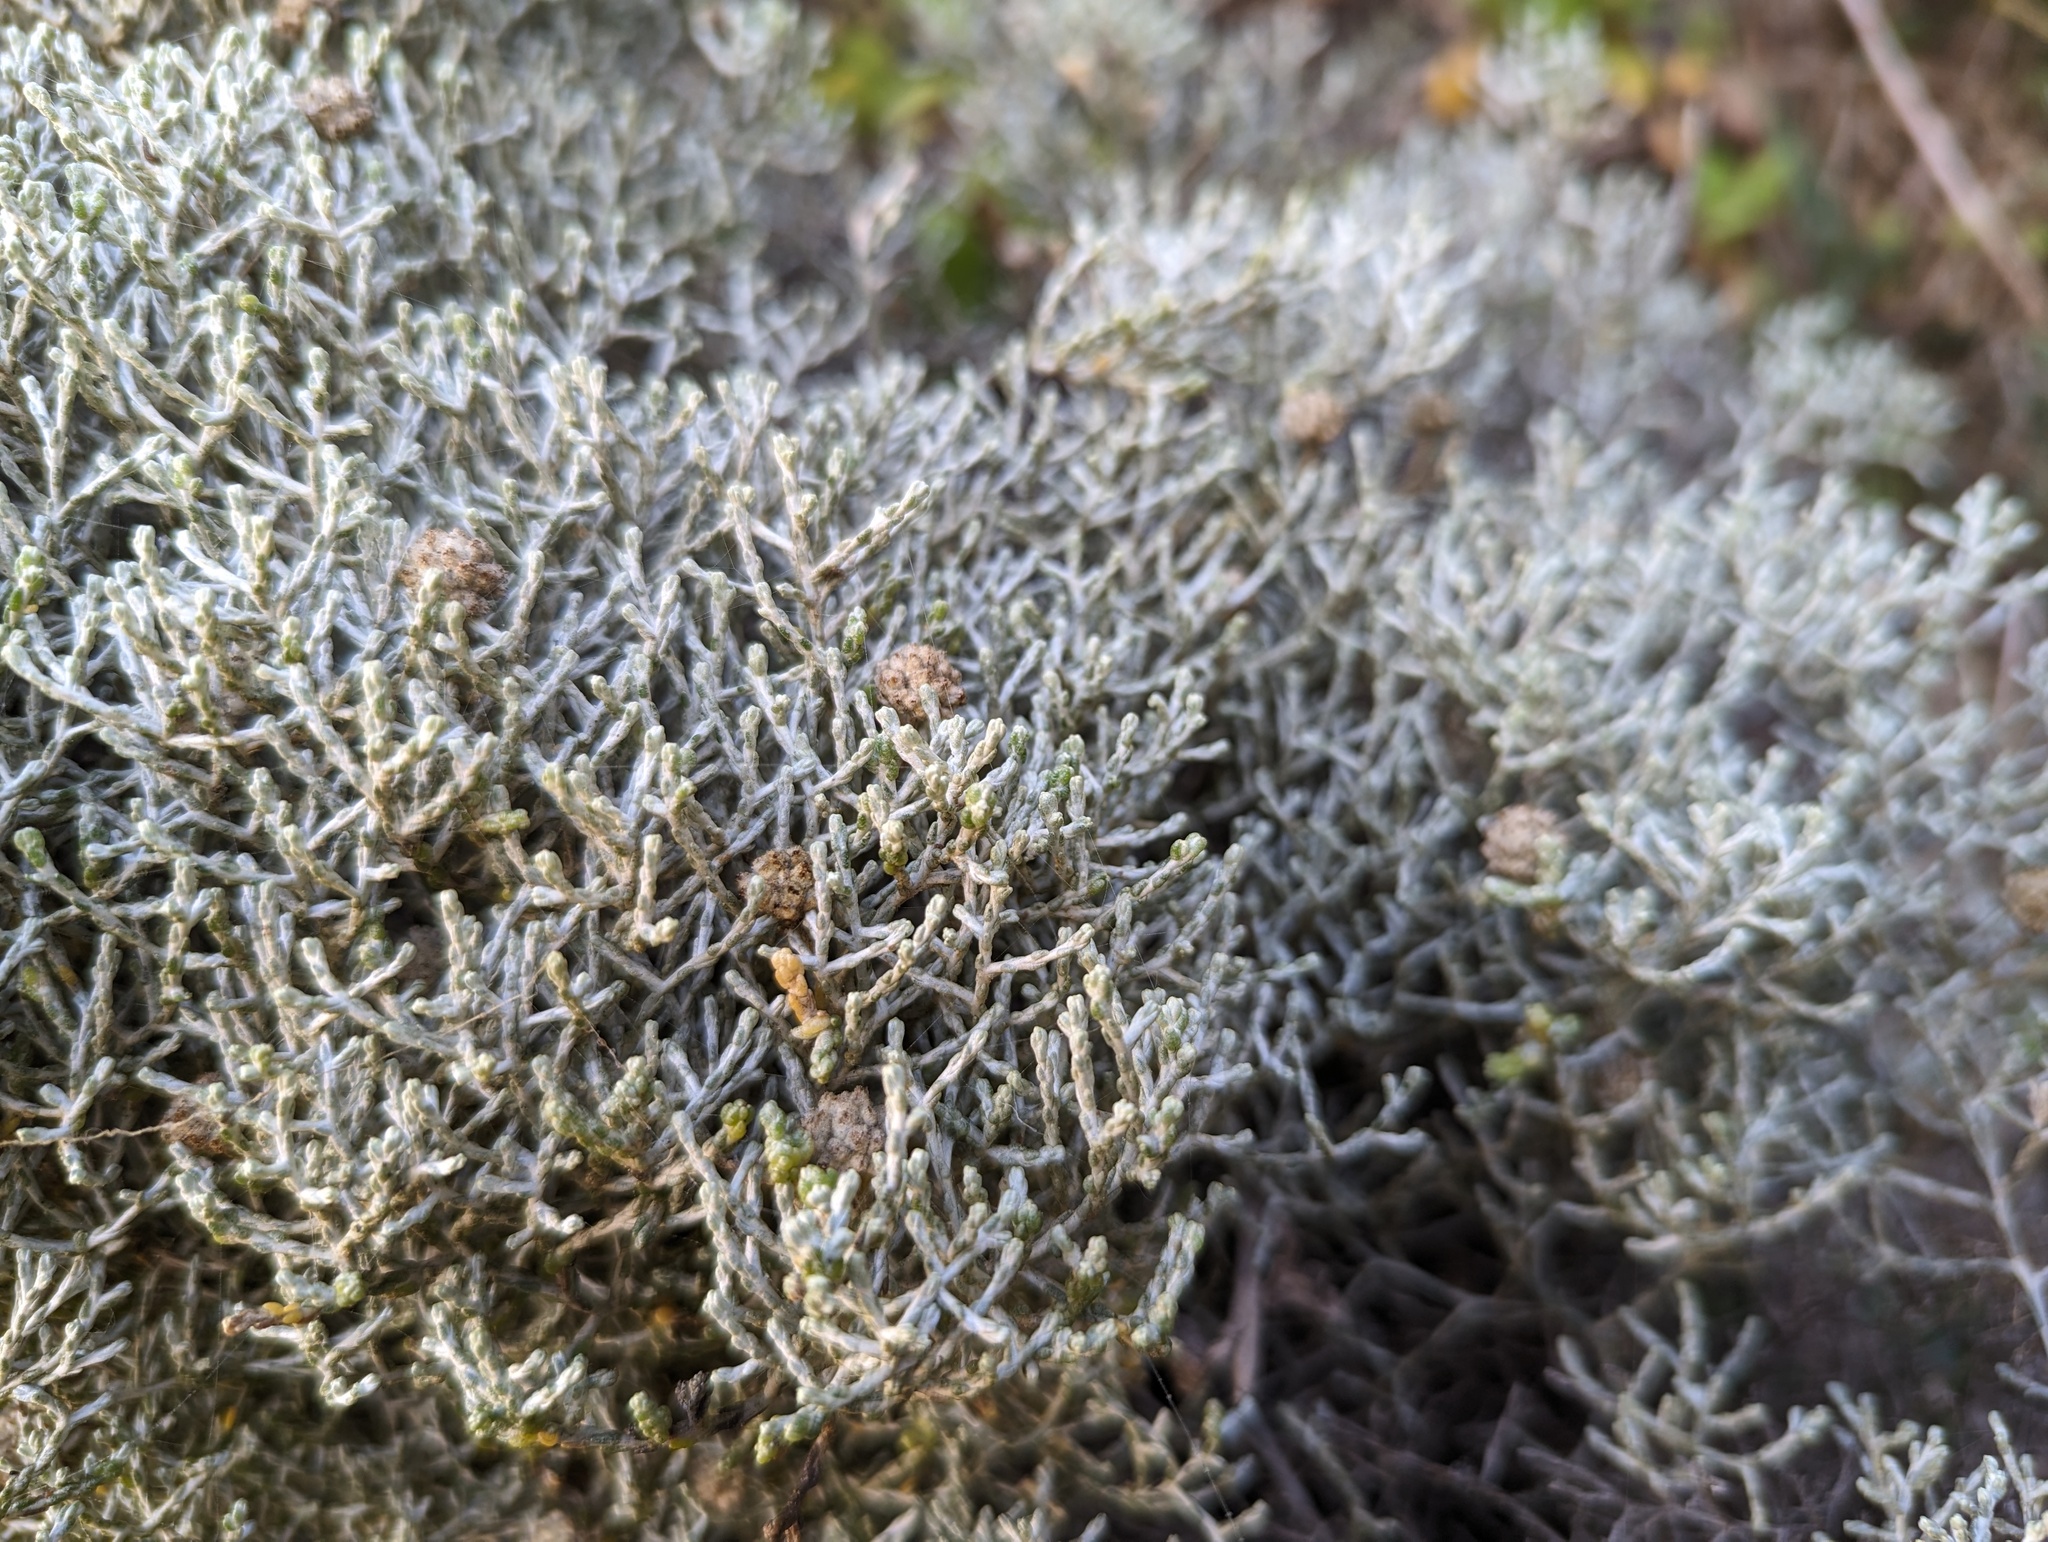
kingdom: Plantae
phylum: Tracheophyta
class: Magnoliopsida
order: Asterales
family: Asteraceae
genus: Calocephalus
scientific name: Calocephalus brownii
